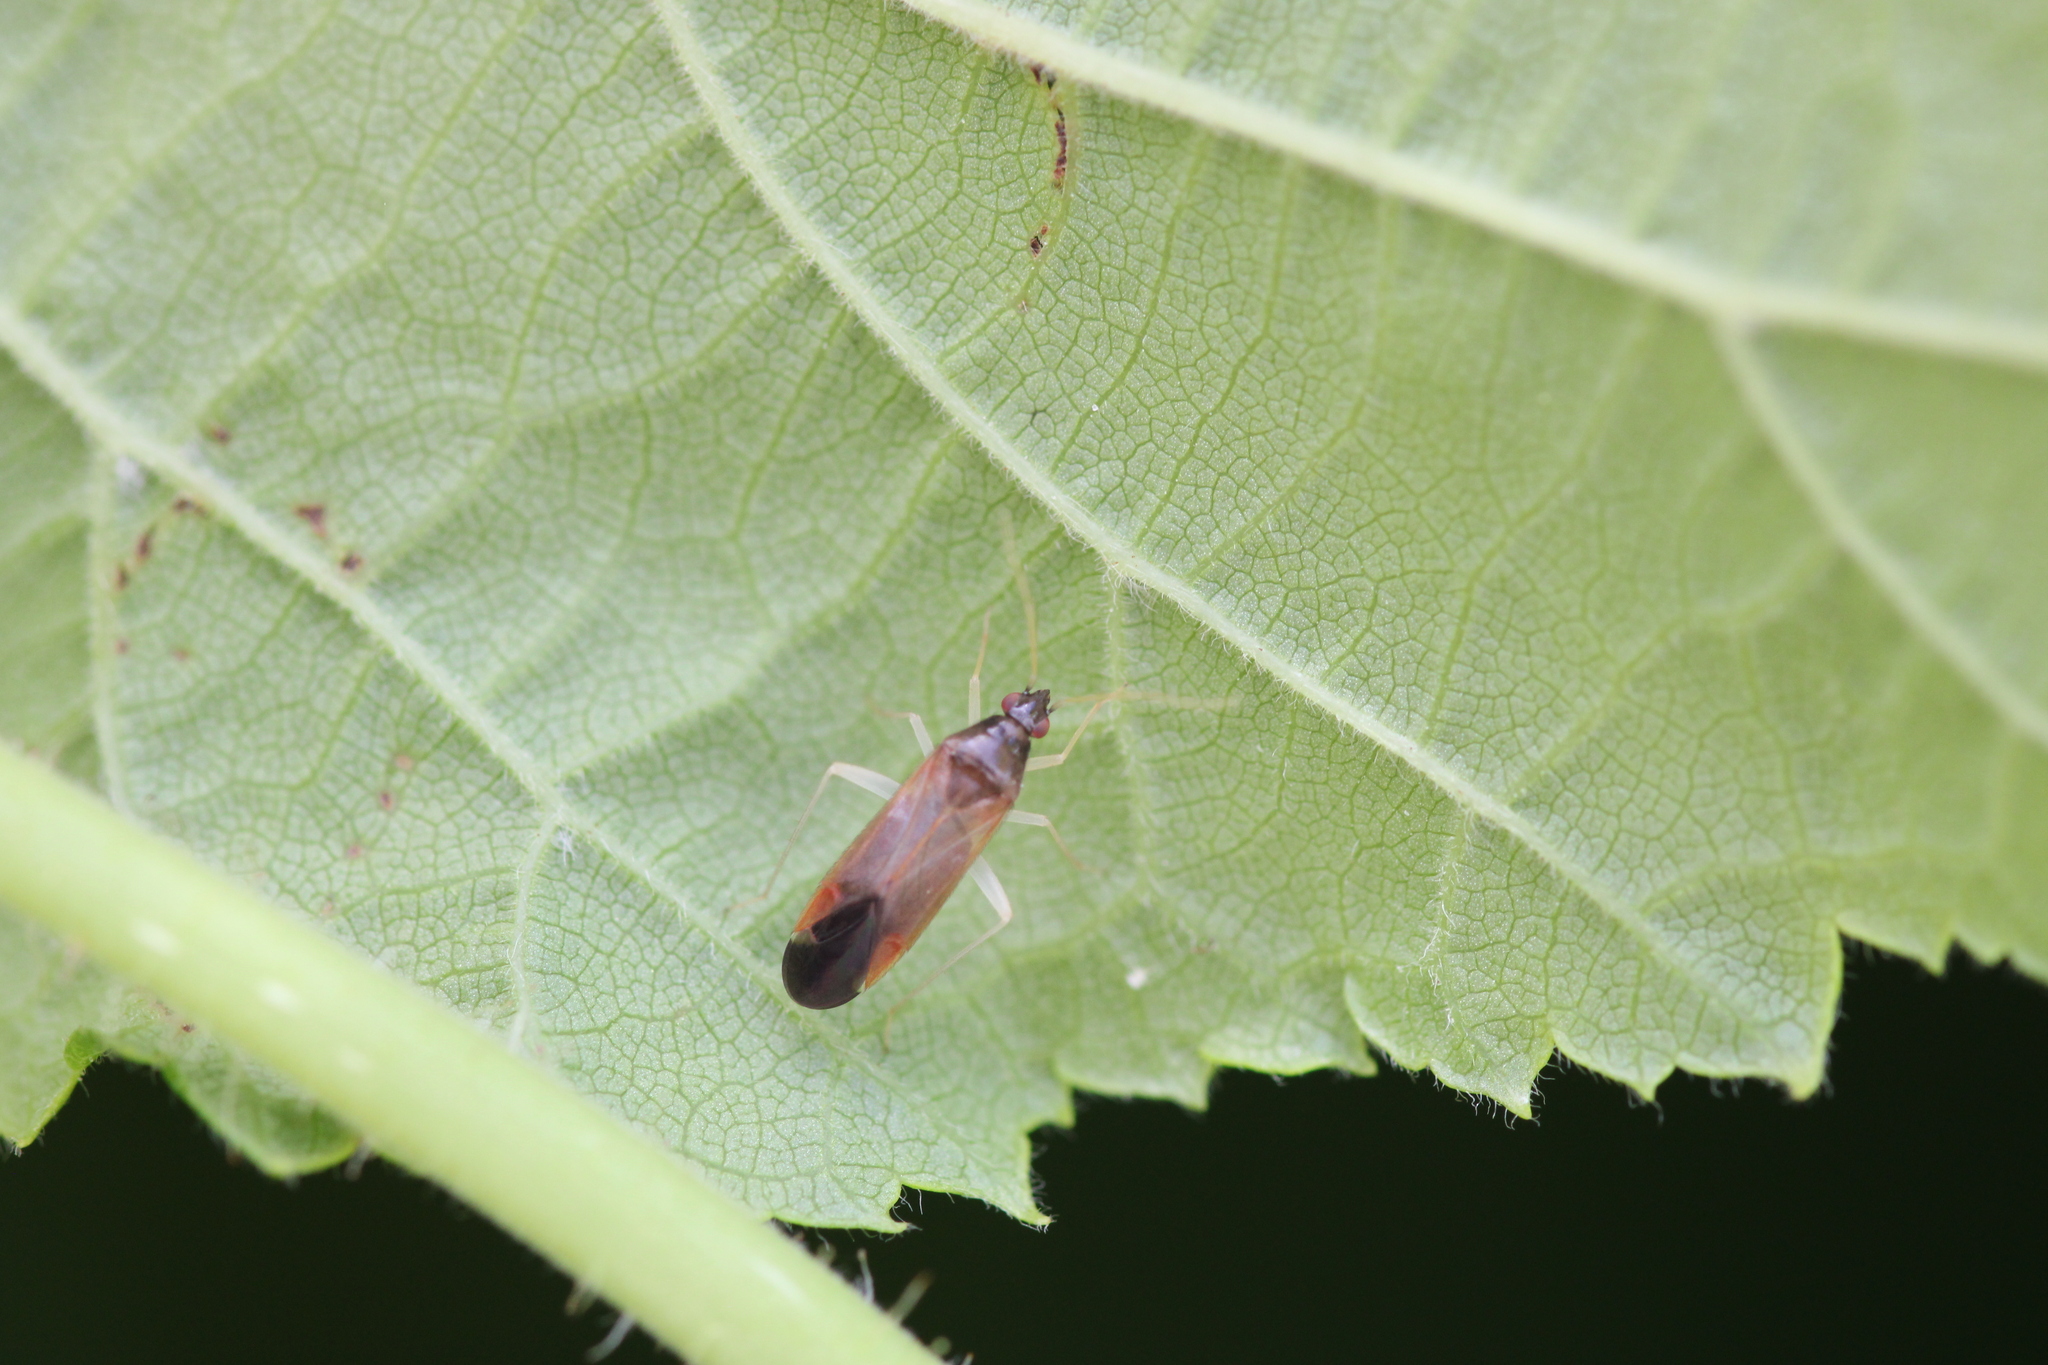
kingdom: Animalia
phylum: Arthropoda
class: Insecta
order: Hemiptera
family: Miridae
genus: Phylus
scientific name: Phylus coryli
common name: Plant bug
